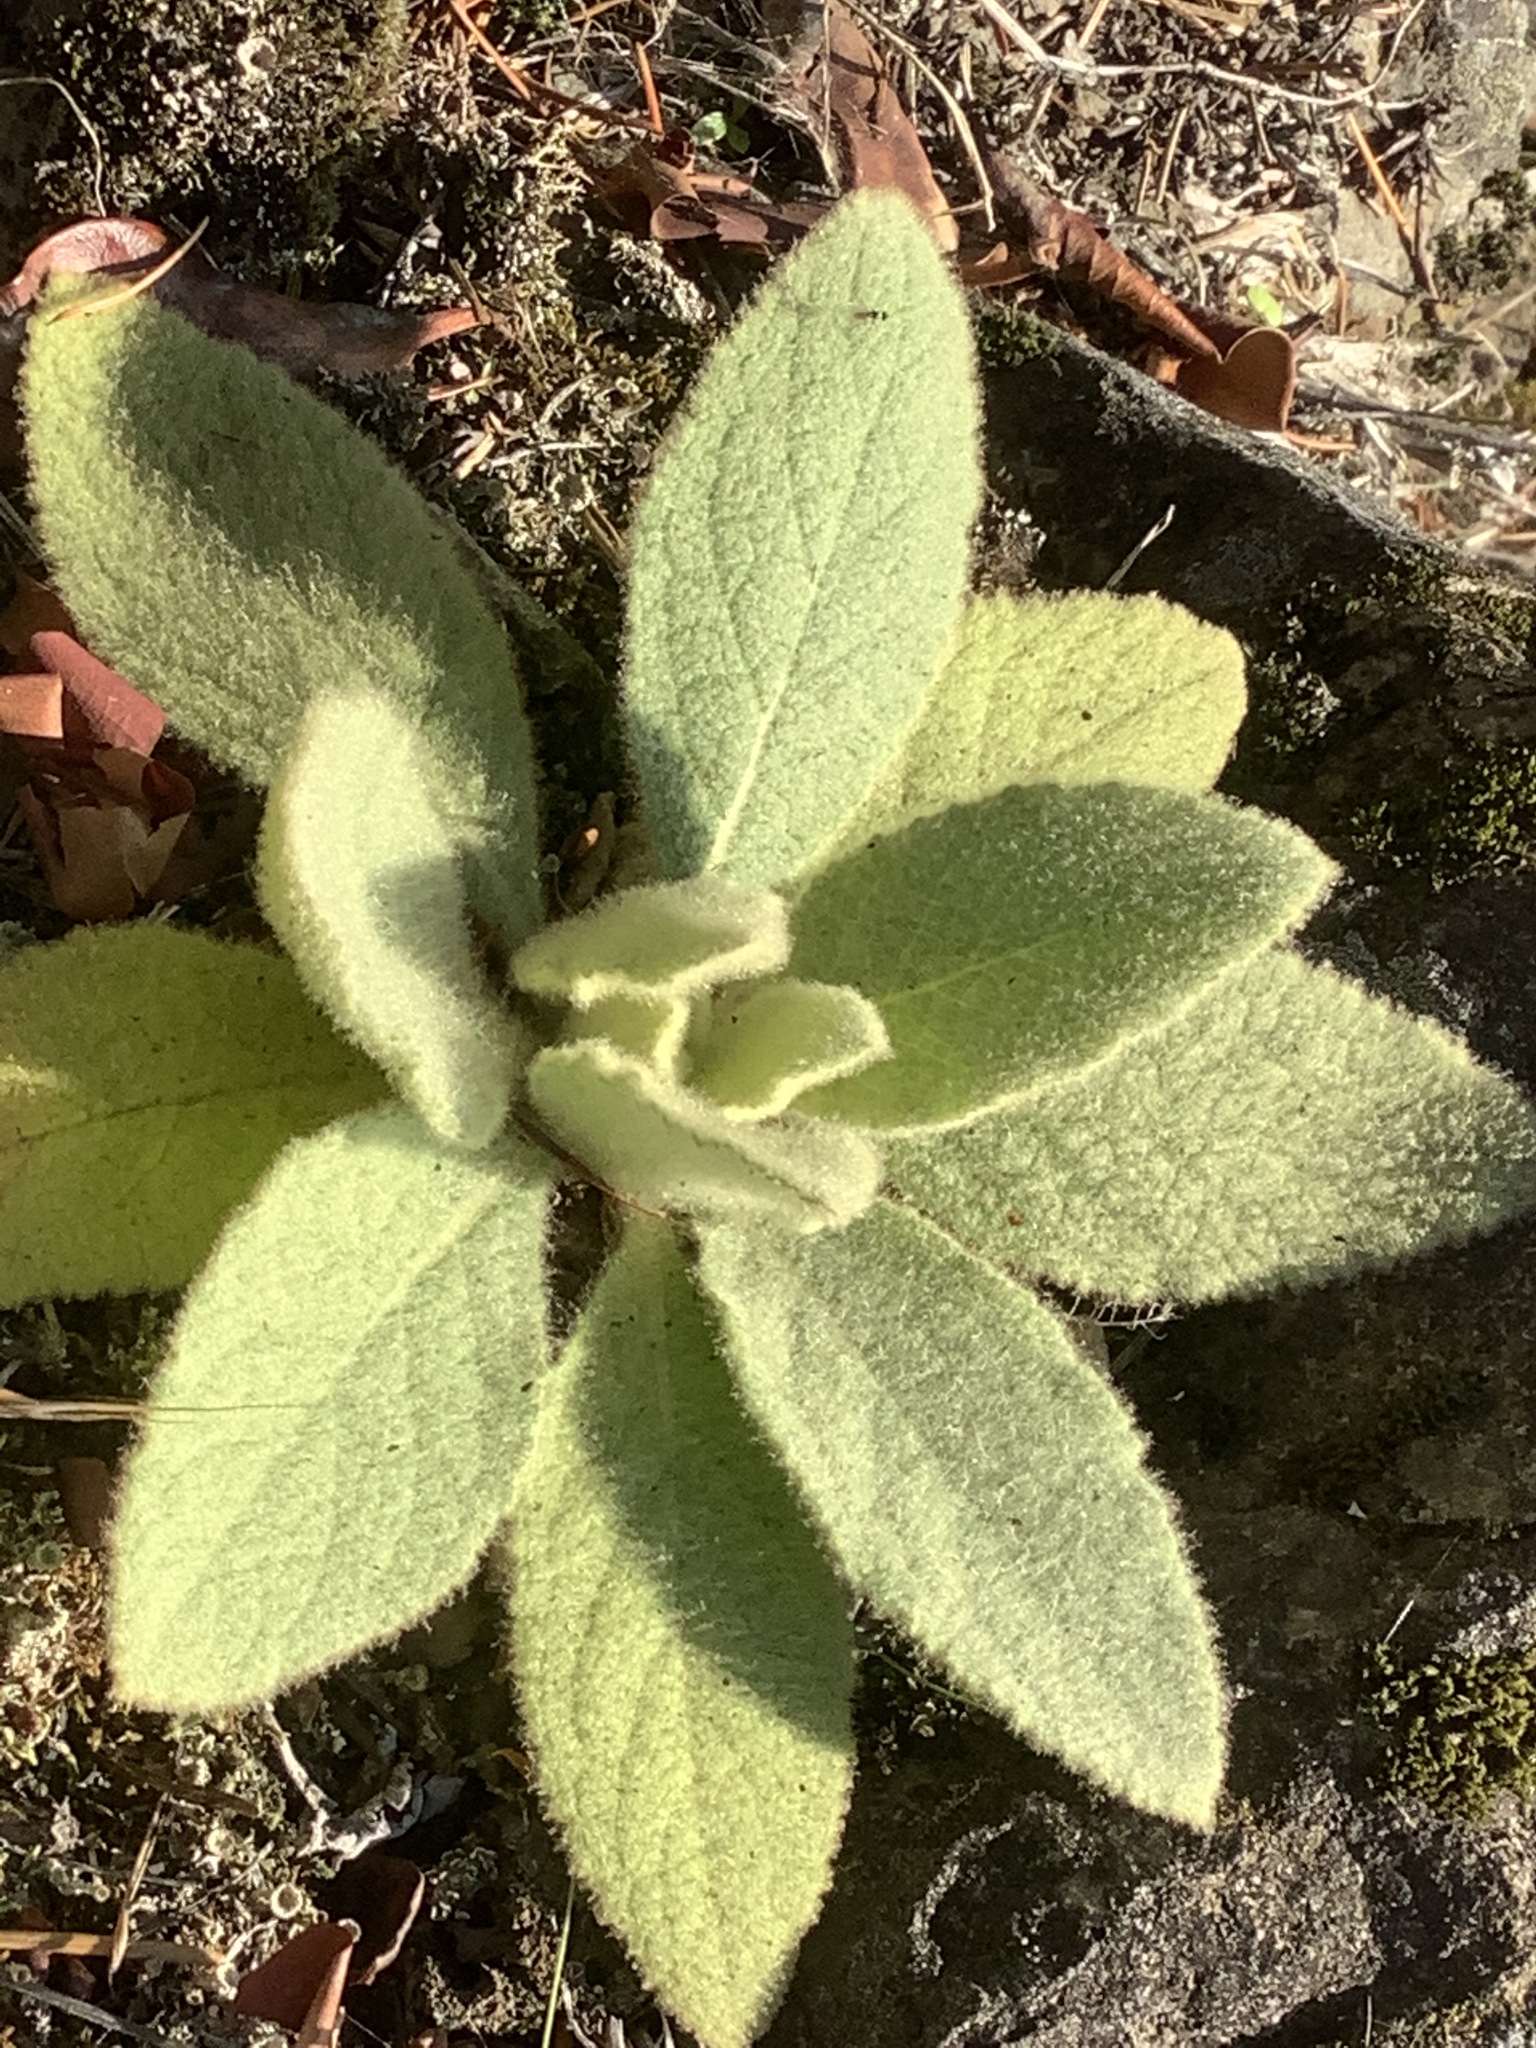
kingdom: Plantae
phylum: Tracheophyta
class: Magnoliopsida
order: Lamiales
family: Scrophulariaceae
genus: Verbascum
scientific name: Verbascum thapsus
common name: Common mullein
